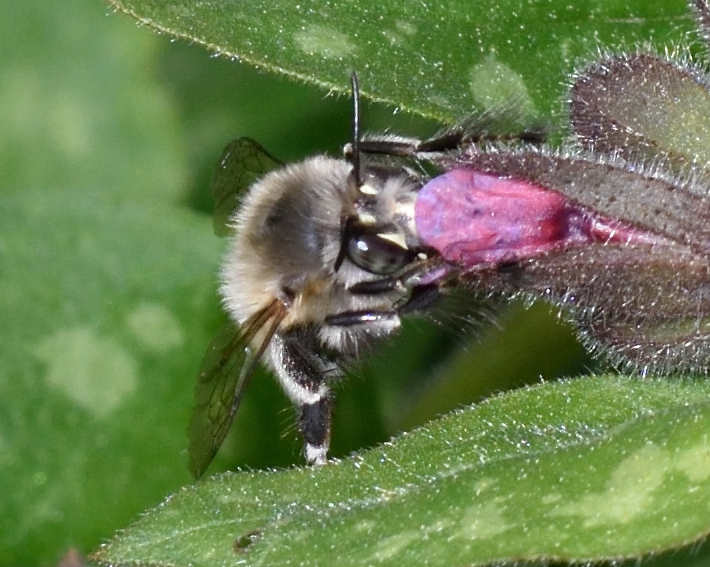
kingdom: Animalia
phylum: Arthropoda
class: Insecta
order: Hymenoptera
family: Apidae
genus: Anthophora
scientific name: Anthophora plumipes
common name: Hairy-footed flower bee
